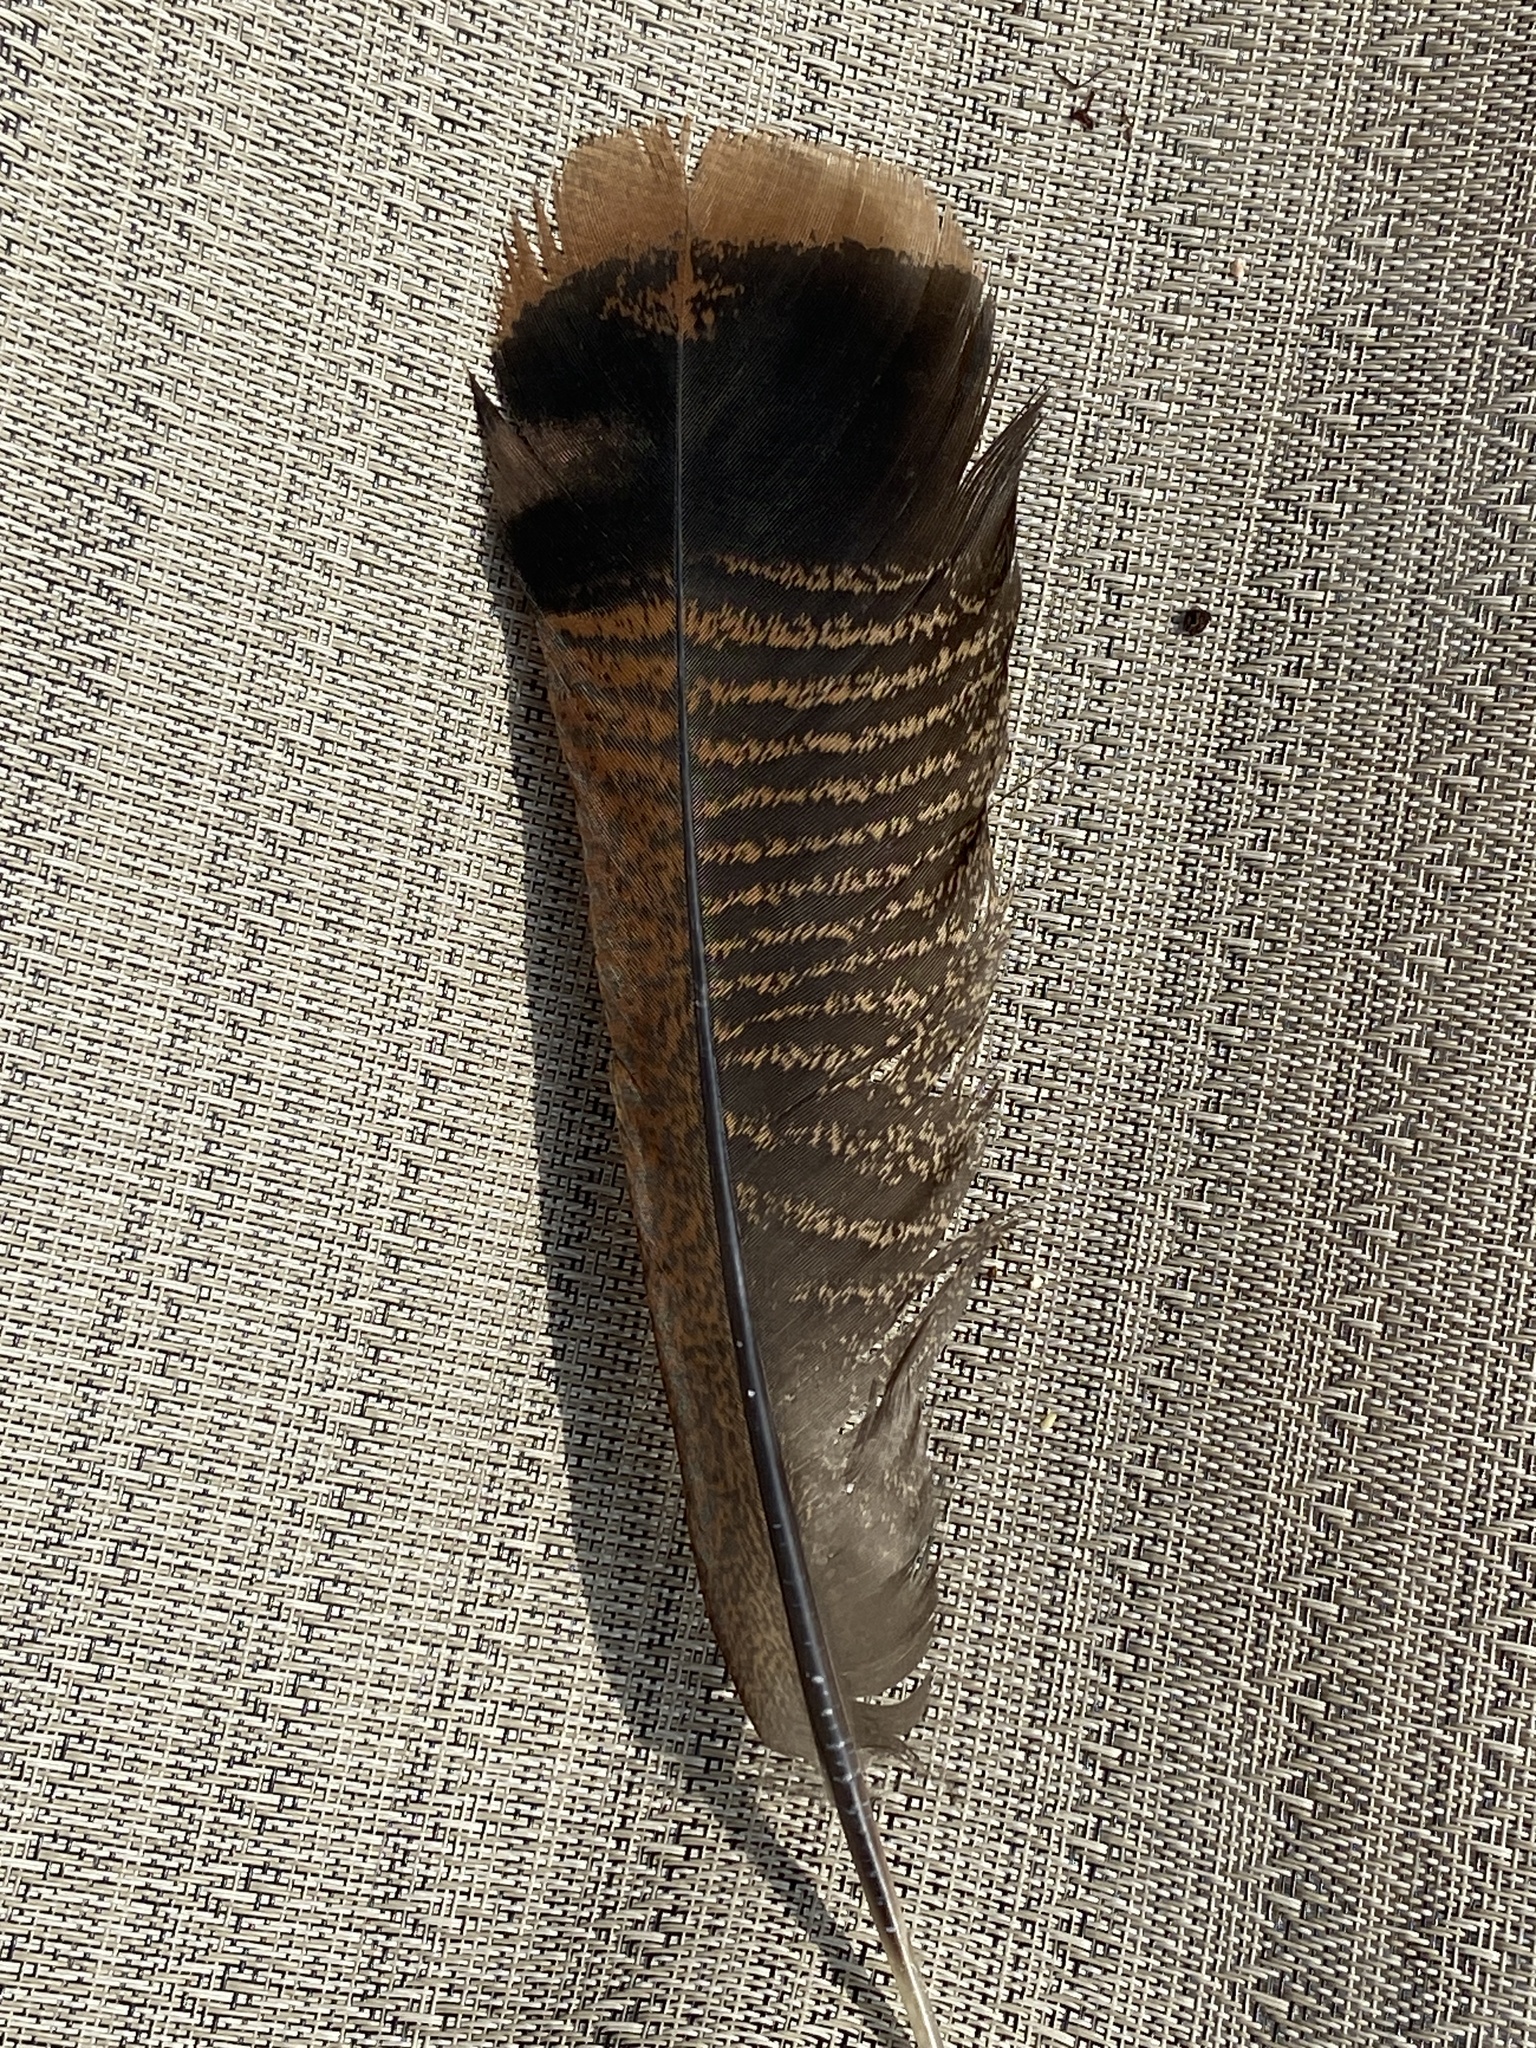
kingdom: Animalia
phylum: Chordata
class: Aves
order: Galliformes
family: Phasianidae
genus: Meleagris
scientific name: Meleagris gallopavo
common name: Wild turkey
